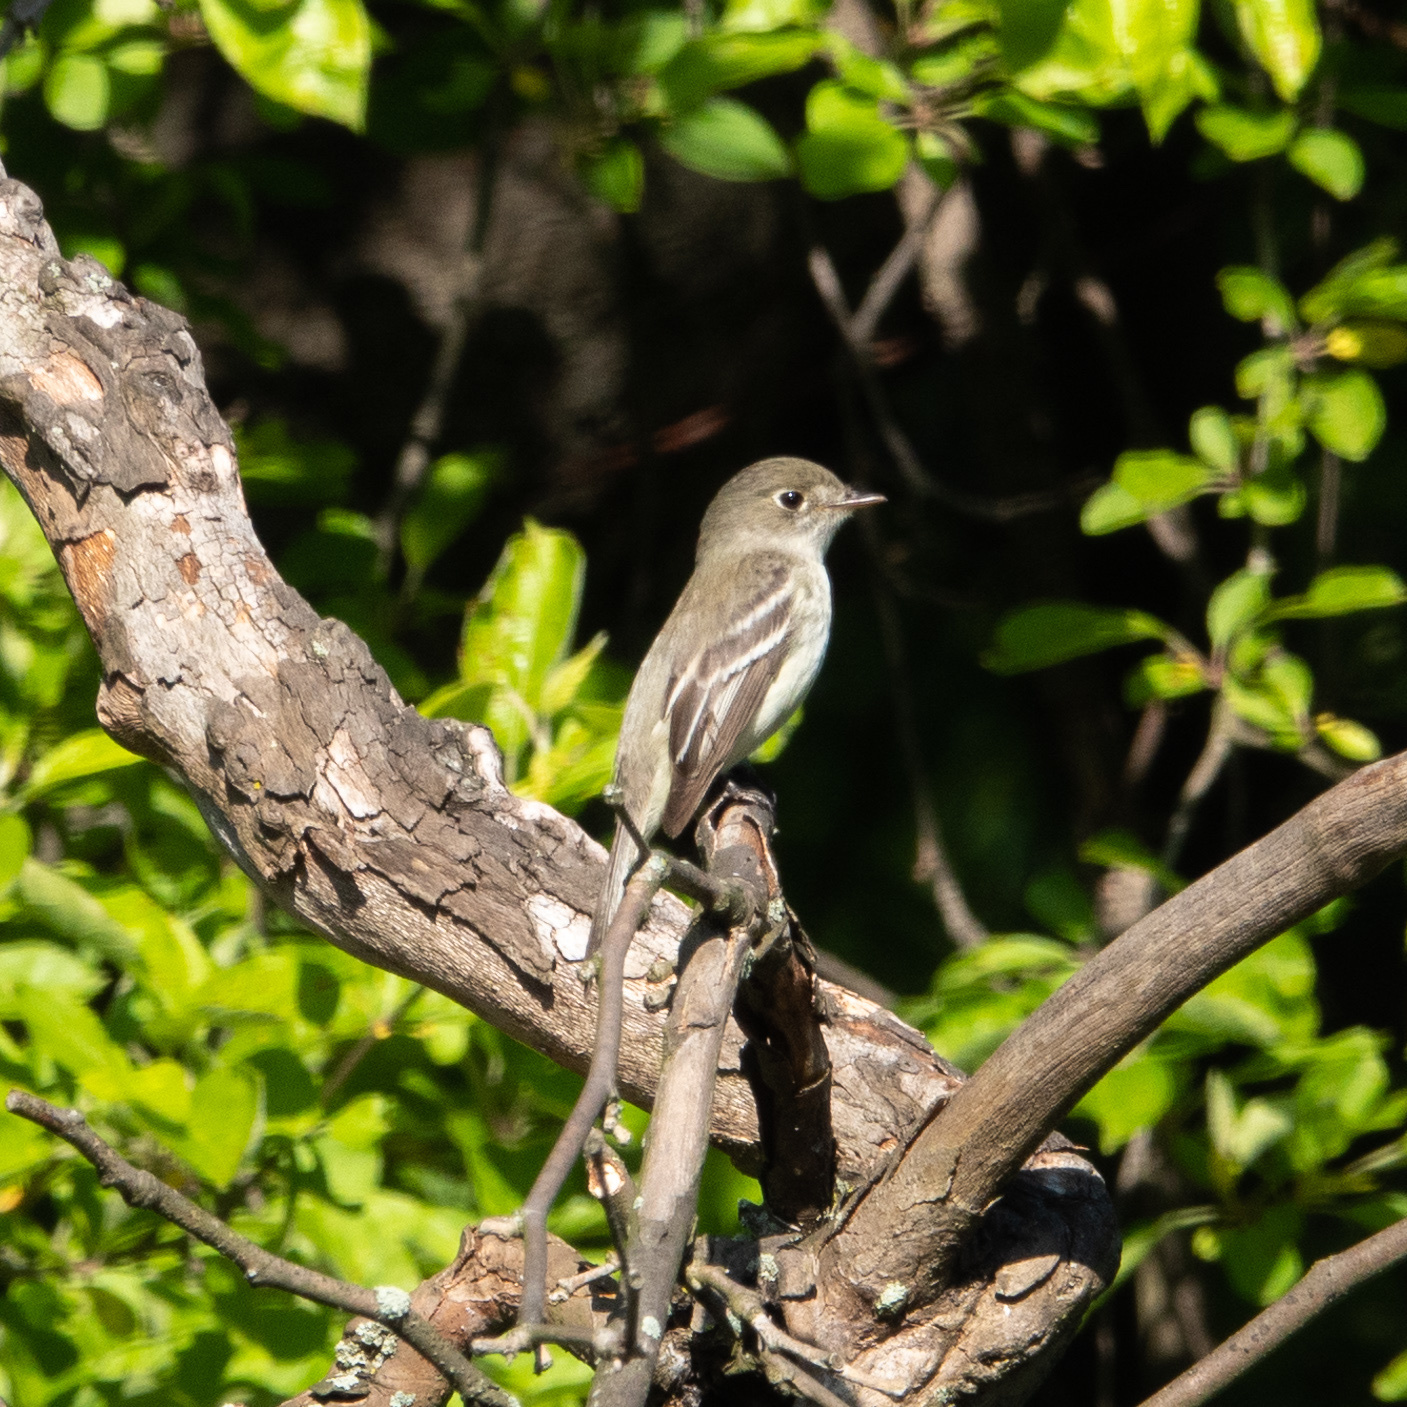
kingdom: Animalia
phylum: Chordata
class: Aves
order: Passeriformes
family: Tyrannidae
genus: Empidonax
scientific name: Empidonax minimus
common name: Least flycatcher
